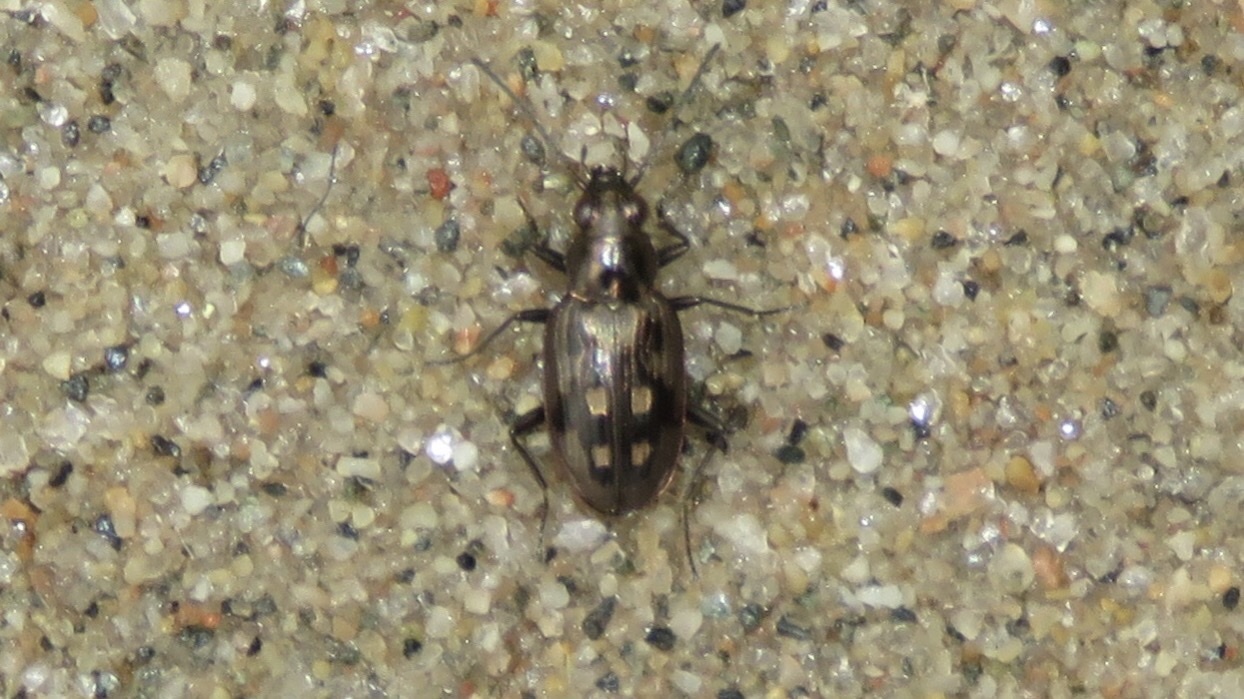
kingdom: Animalia
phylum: Arthropoda
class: Insecta
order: Coleoptera
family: Carabidae
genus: Bembidion
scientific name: Bembidion inaequale
